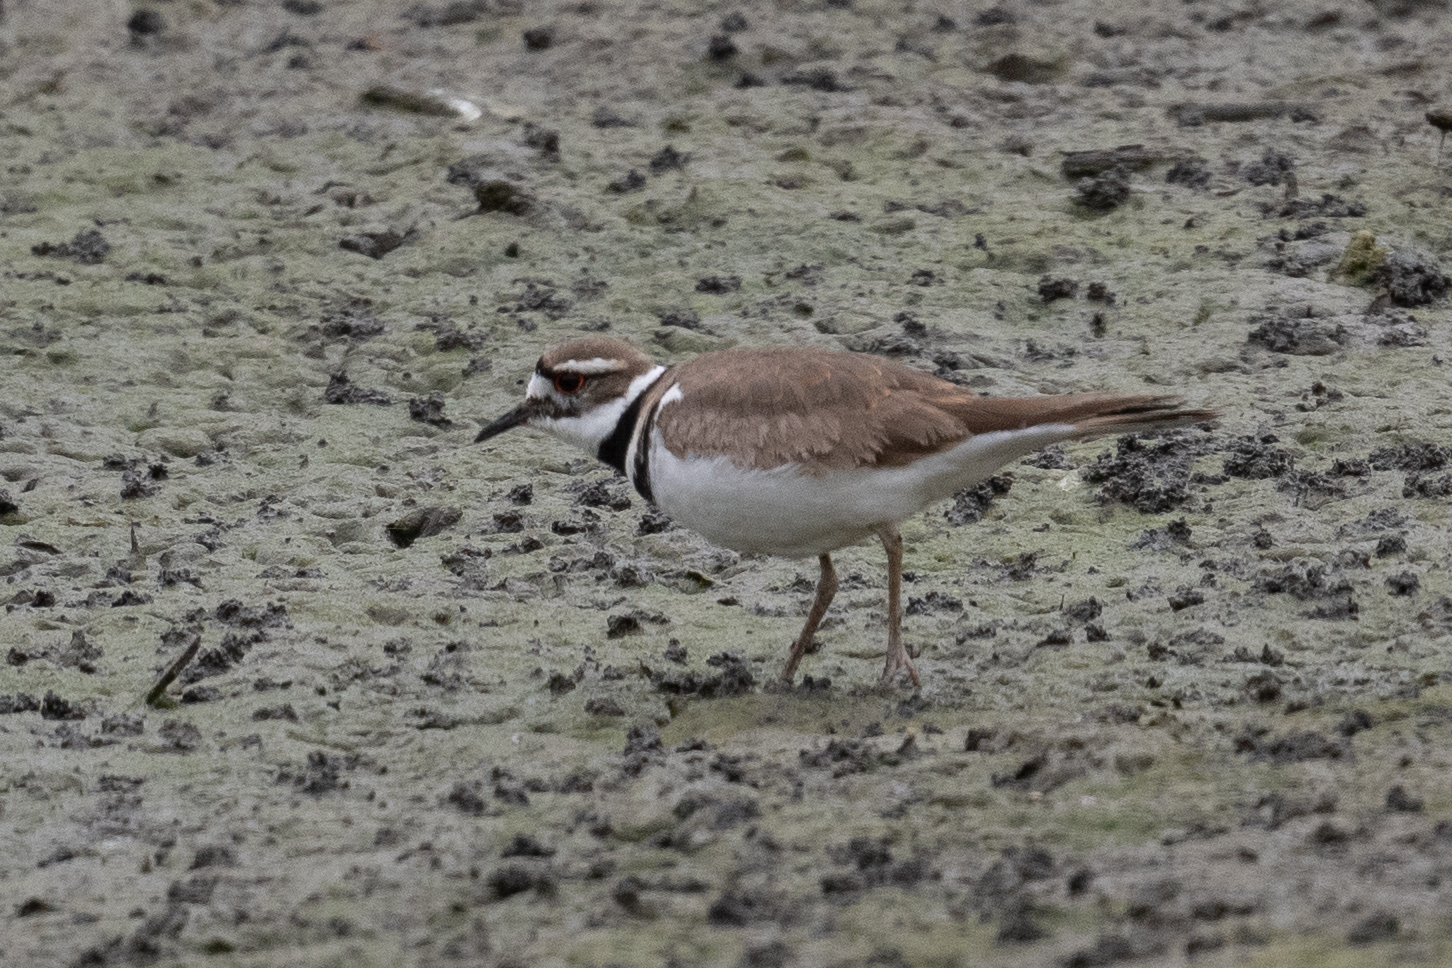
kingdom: Animalia
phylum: Chordata
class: Aves
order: Charadriiformes
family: Charadriidae
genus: Charadrius
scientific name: Charadrius vociferus
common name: Killdeer
